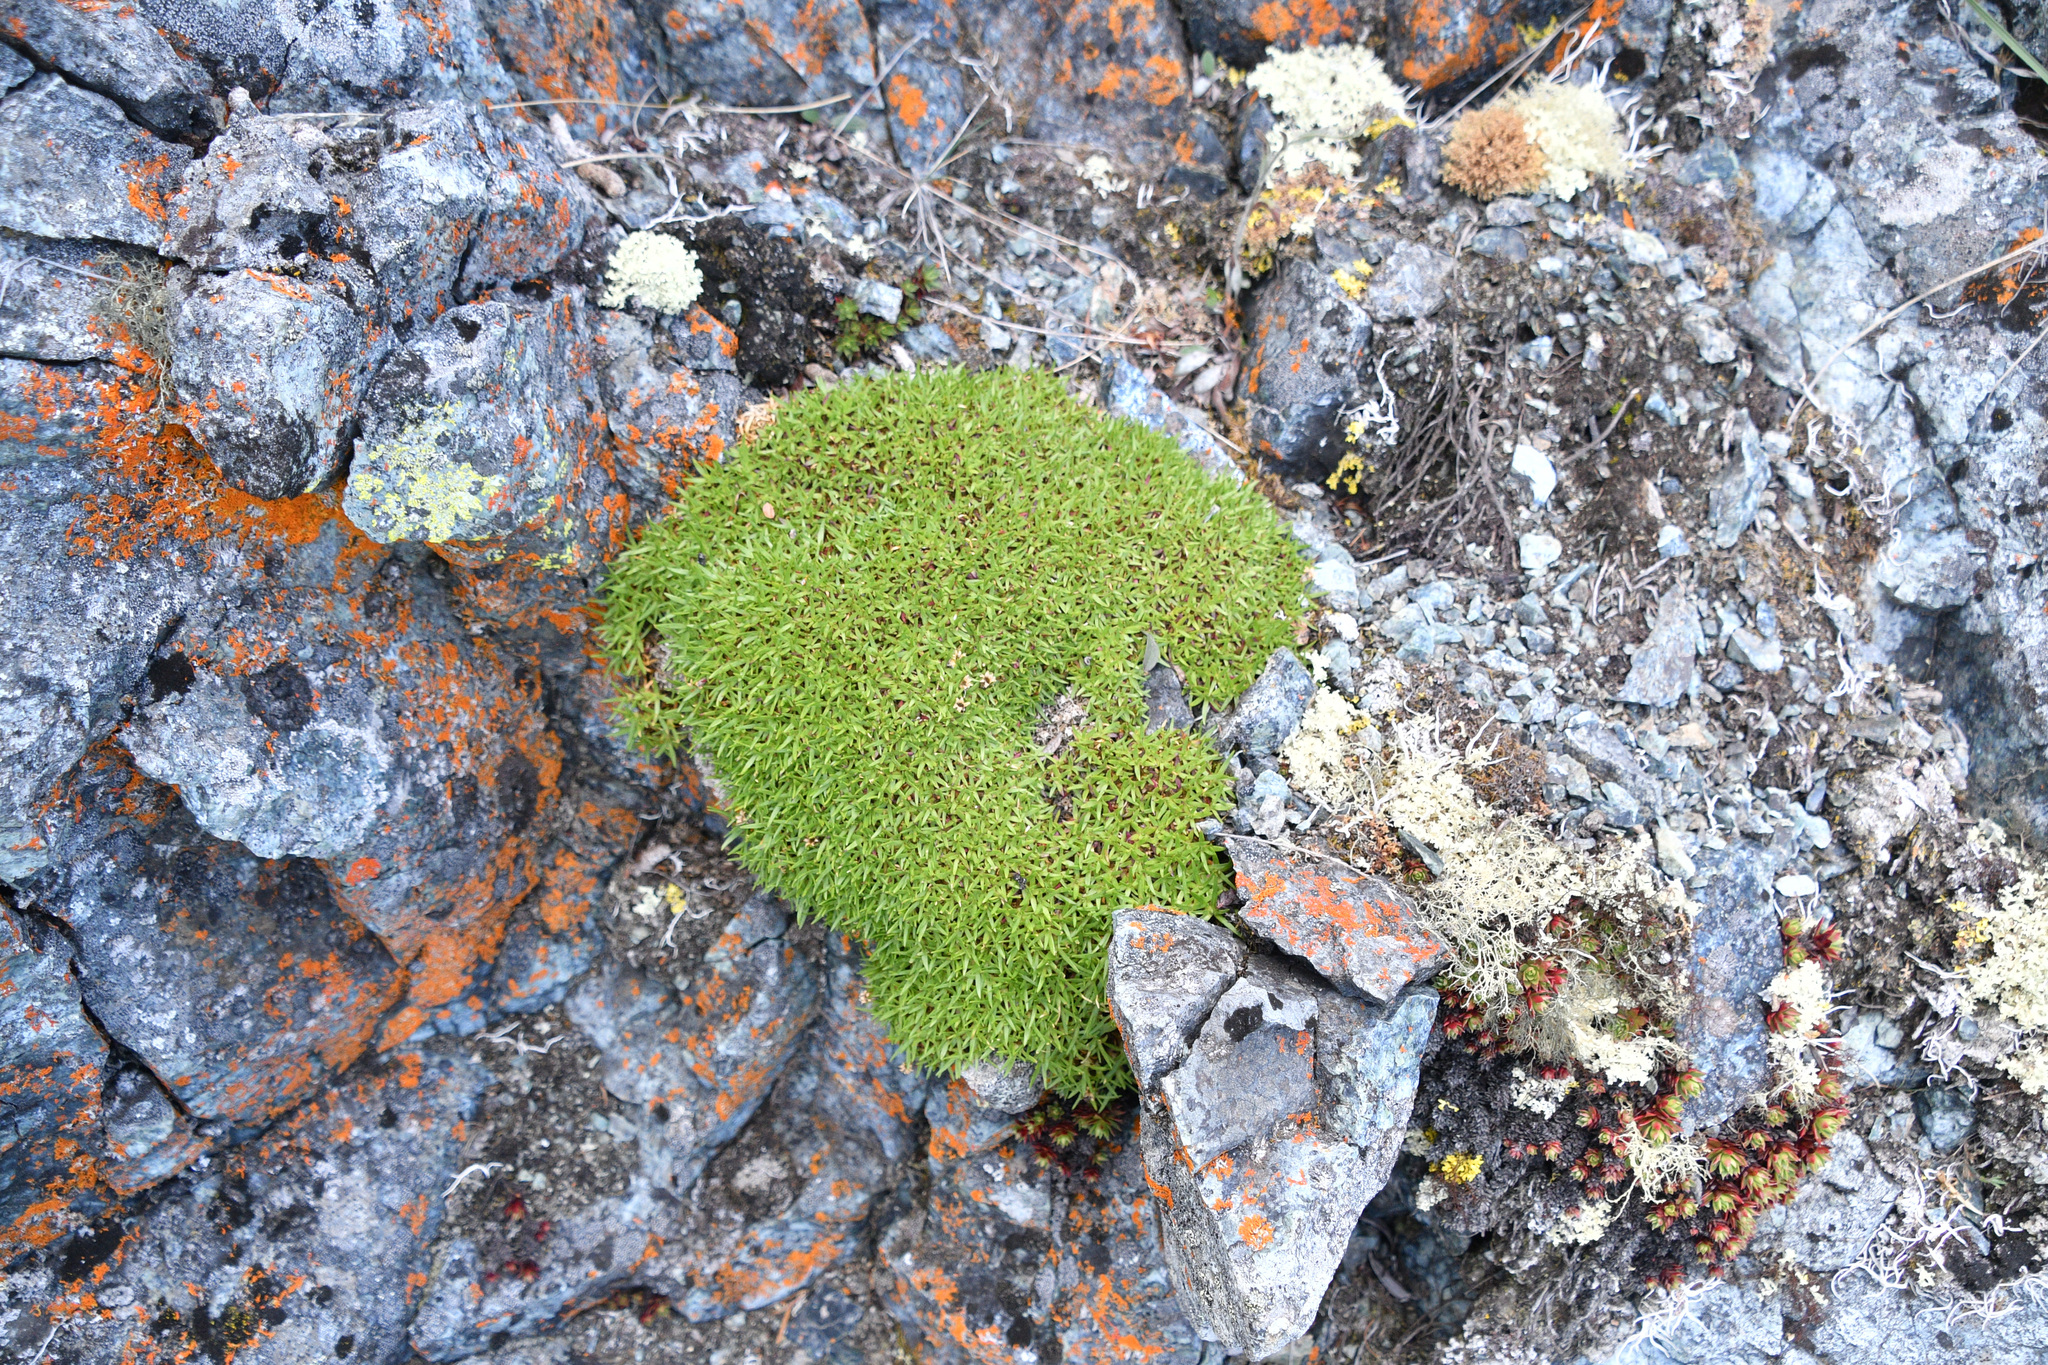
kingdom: Plantae
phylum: Tracheophyta
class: Magnoliopsida
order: Caryophyllales
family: Caryophyllaceae
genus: Silene
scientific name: Silene acaulis
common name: Moss campion
